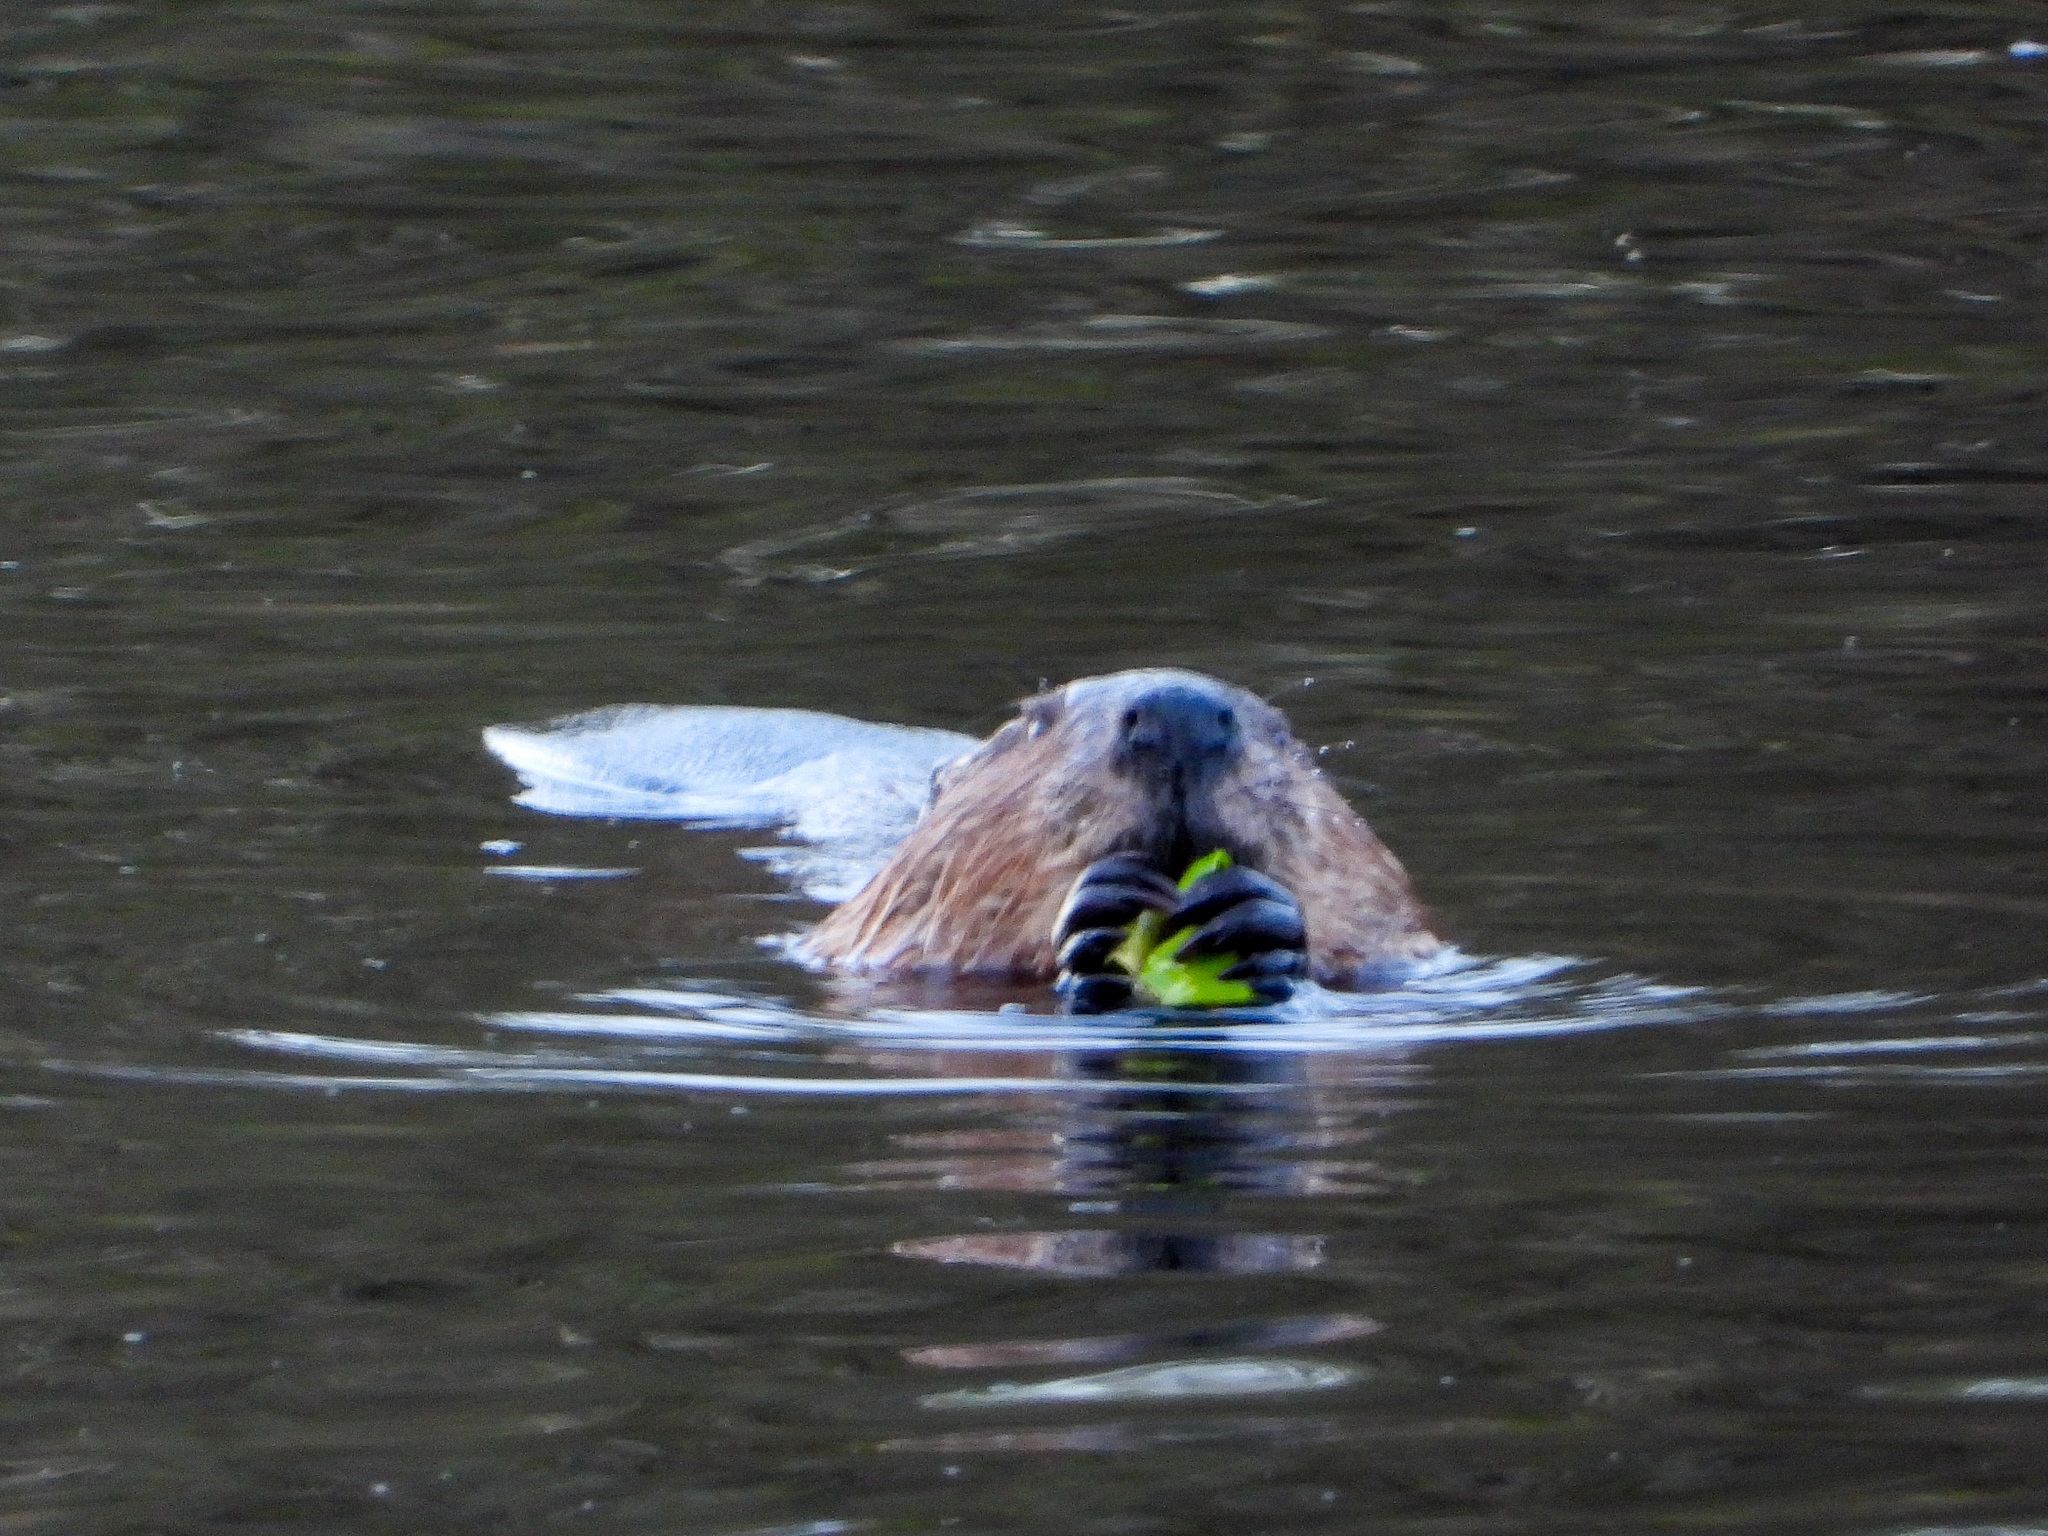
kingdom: Animalia
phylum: Chordata
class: Mammalia
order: Rodentia
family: Castoridae
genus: Castor
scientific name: Castor canadensis
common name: American beaver
